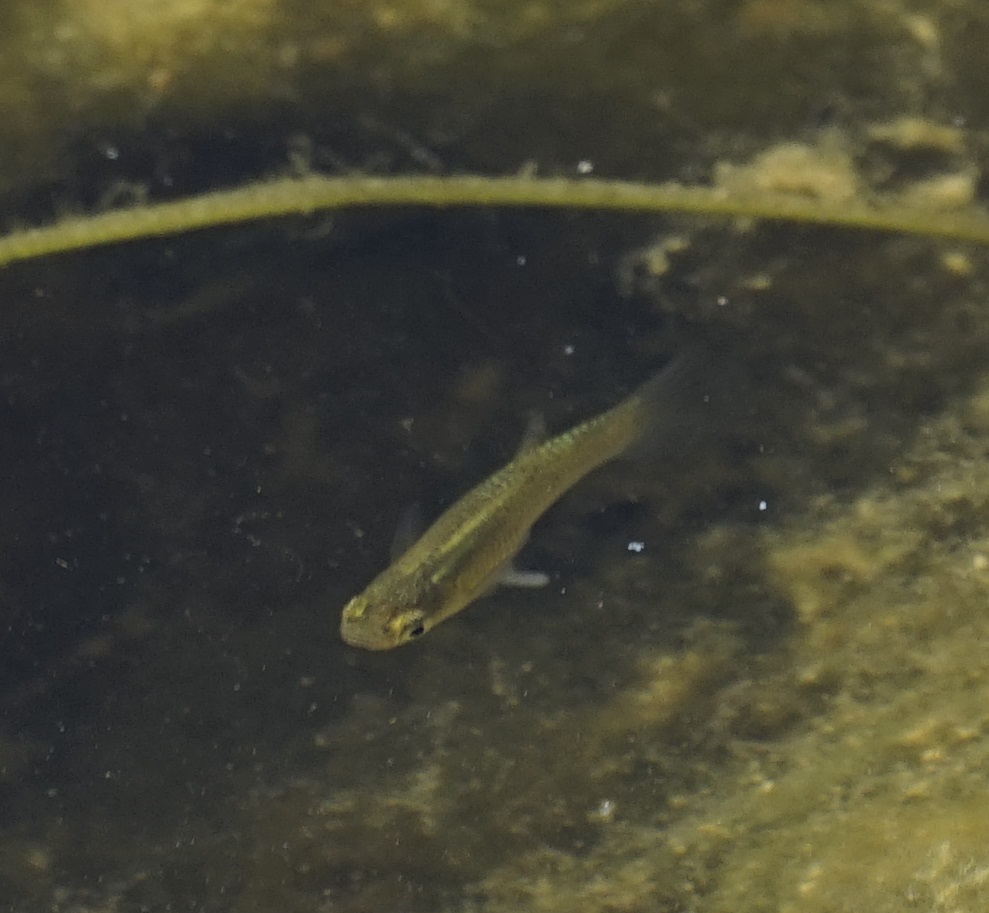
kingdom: Animalia
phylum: Chordata
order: Cyprinodontiformes
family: Poeciliidae
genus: Gambusia
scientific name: Gambusia holbrooki
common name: Eastern mosquitofish
